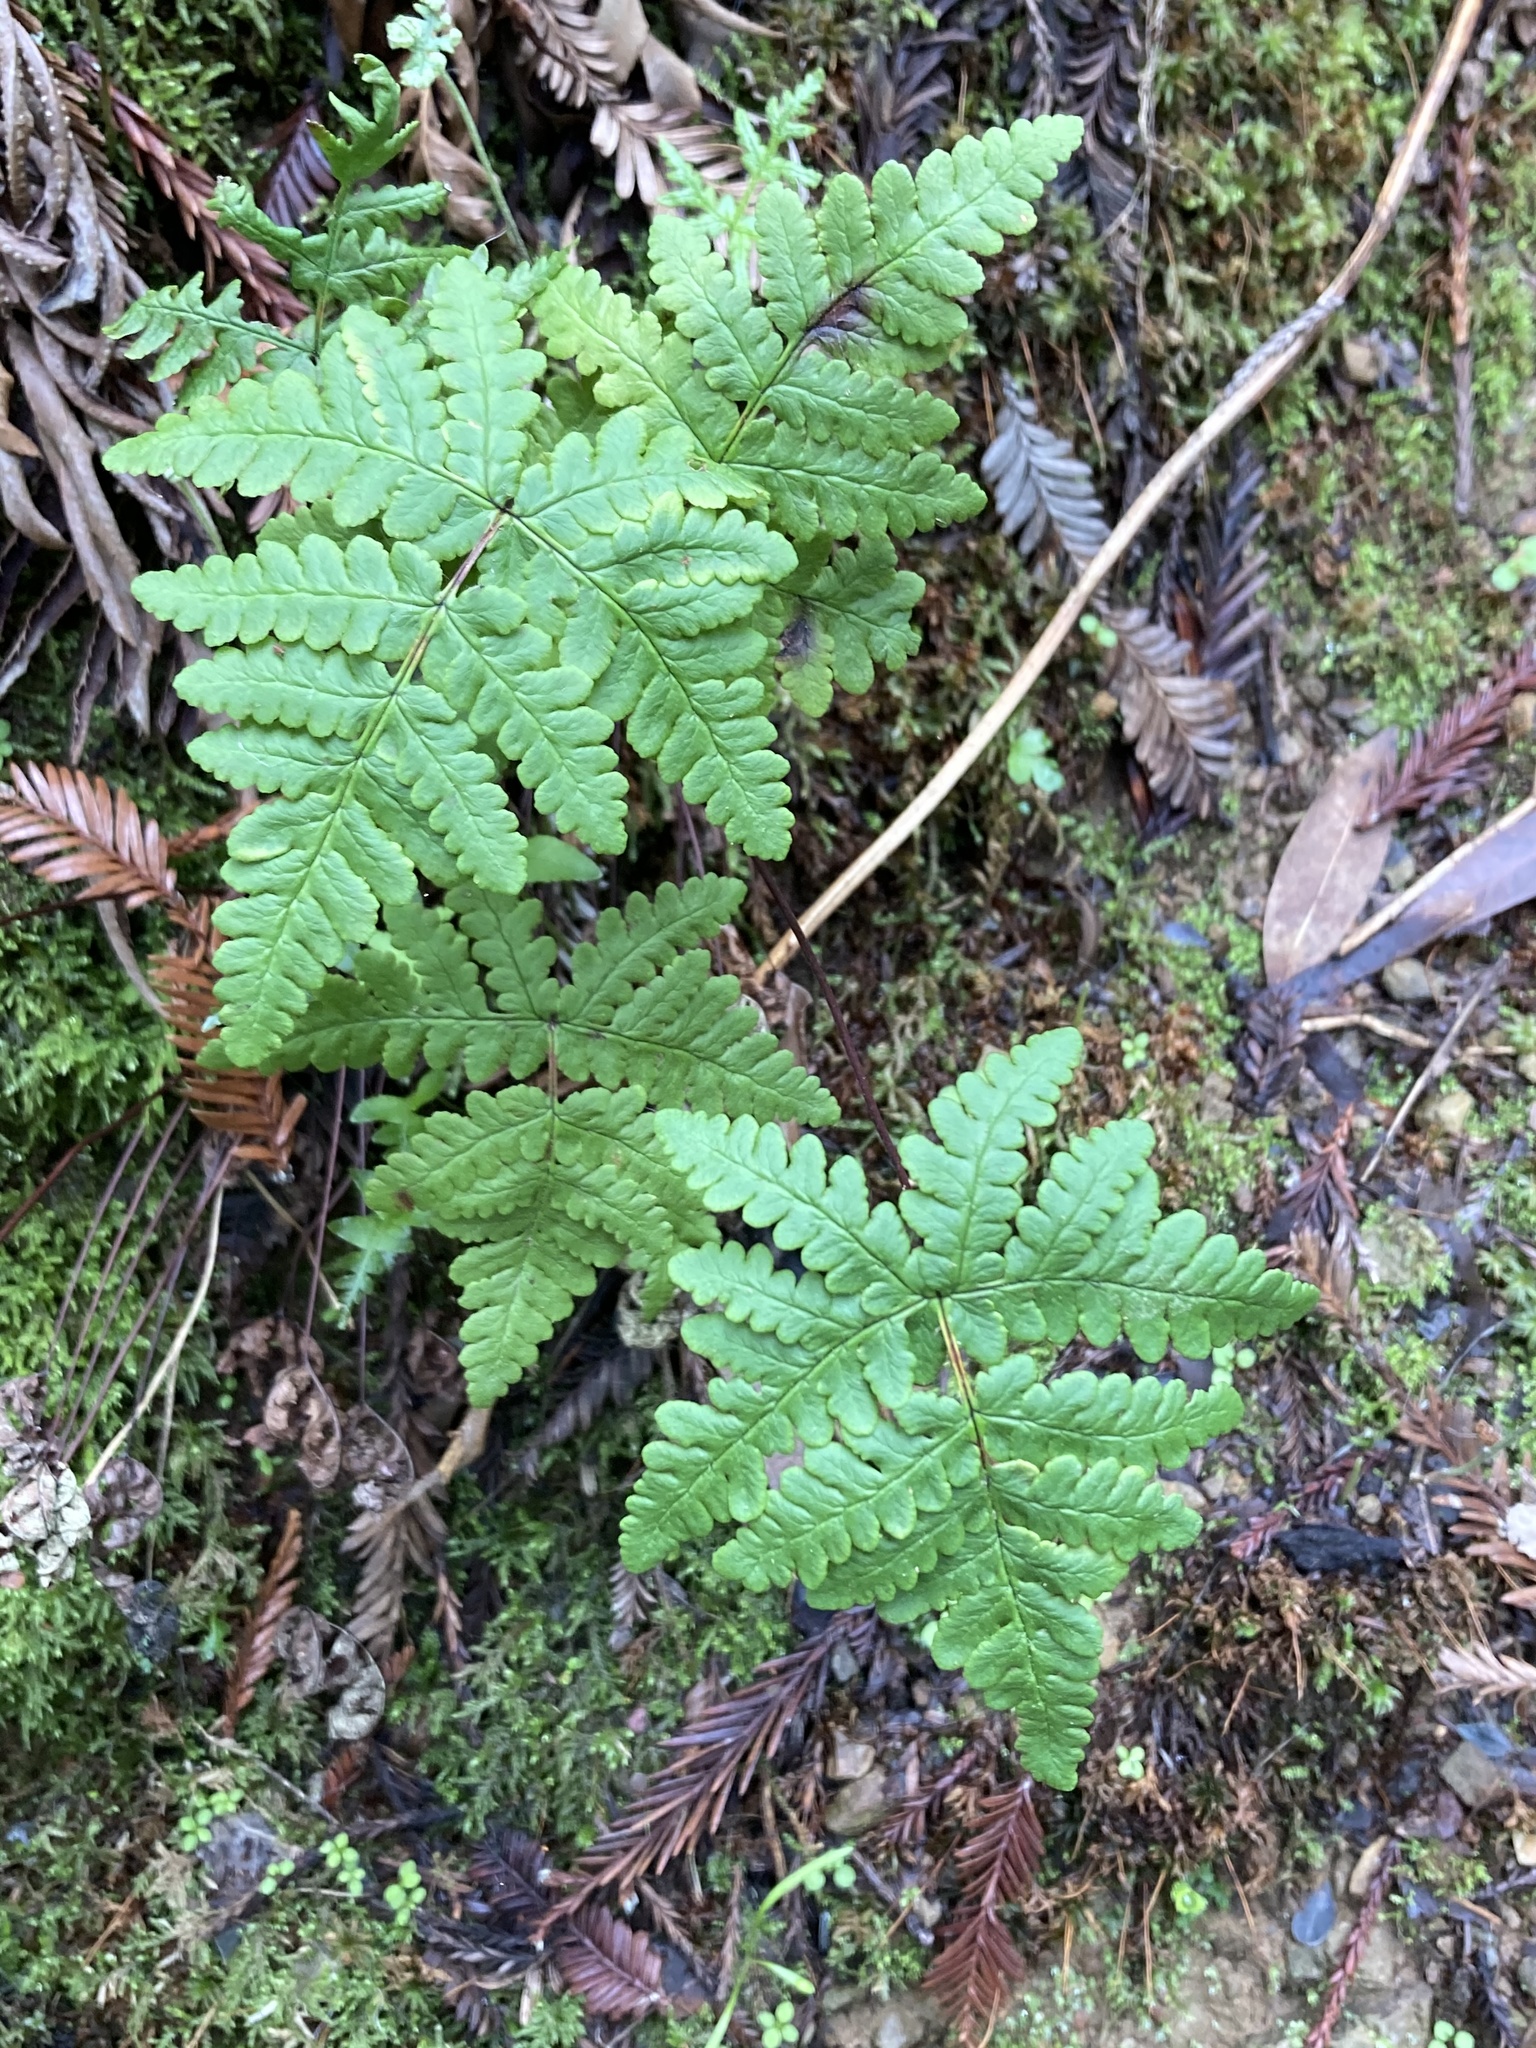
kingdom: Plantae
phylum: Tracheophyta
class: Polypodiopsida
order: Polypodiales
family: Pteridaceae
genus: Pentagramma
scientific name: Pentagramma triangularis
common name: Gold fern
